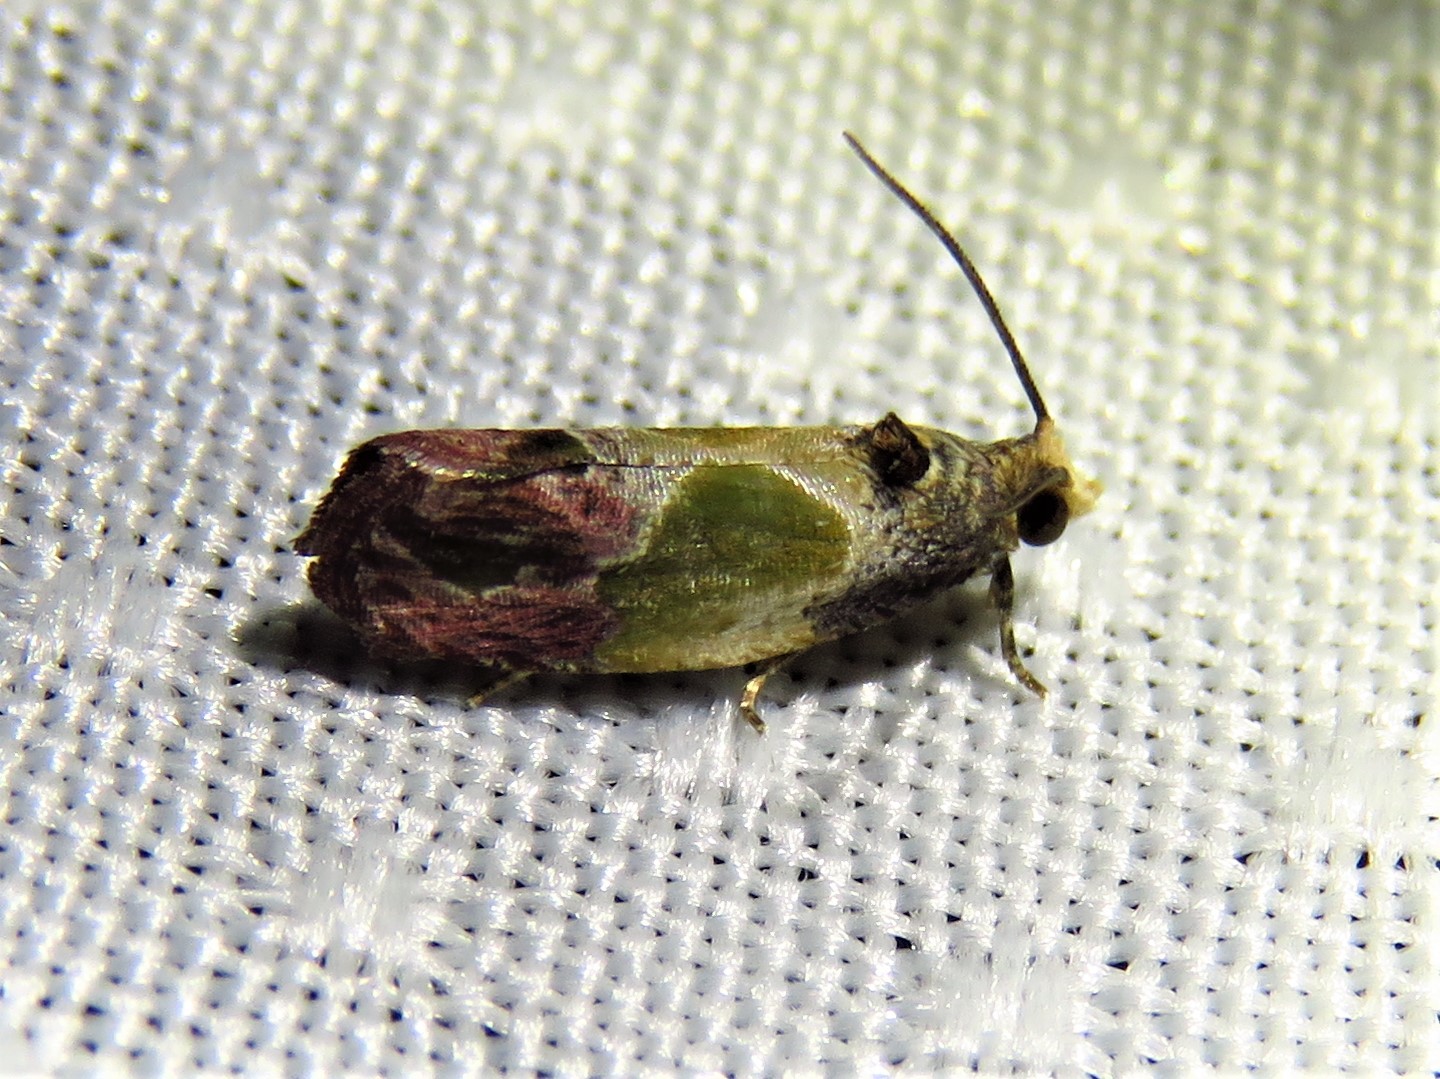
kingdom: Animalia
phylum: Arthropoda
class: Insecta
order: Lepidoptera
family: Tortricidae
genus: Eumarozia
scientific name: Eumarozia malachitana
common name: Sculptured moth
